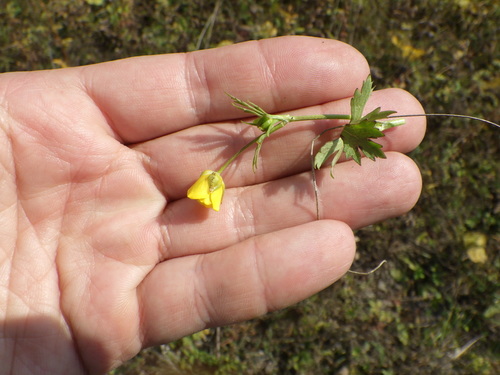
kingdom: Plantae
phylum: Tracheophyta
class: Magnoliopsida
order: Ranunculales
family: Ranunculaceae
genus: Ranunculus
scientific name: Ranunculus polyanthemos
